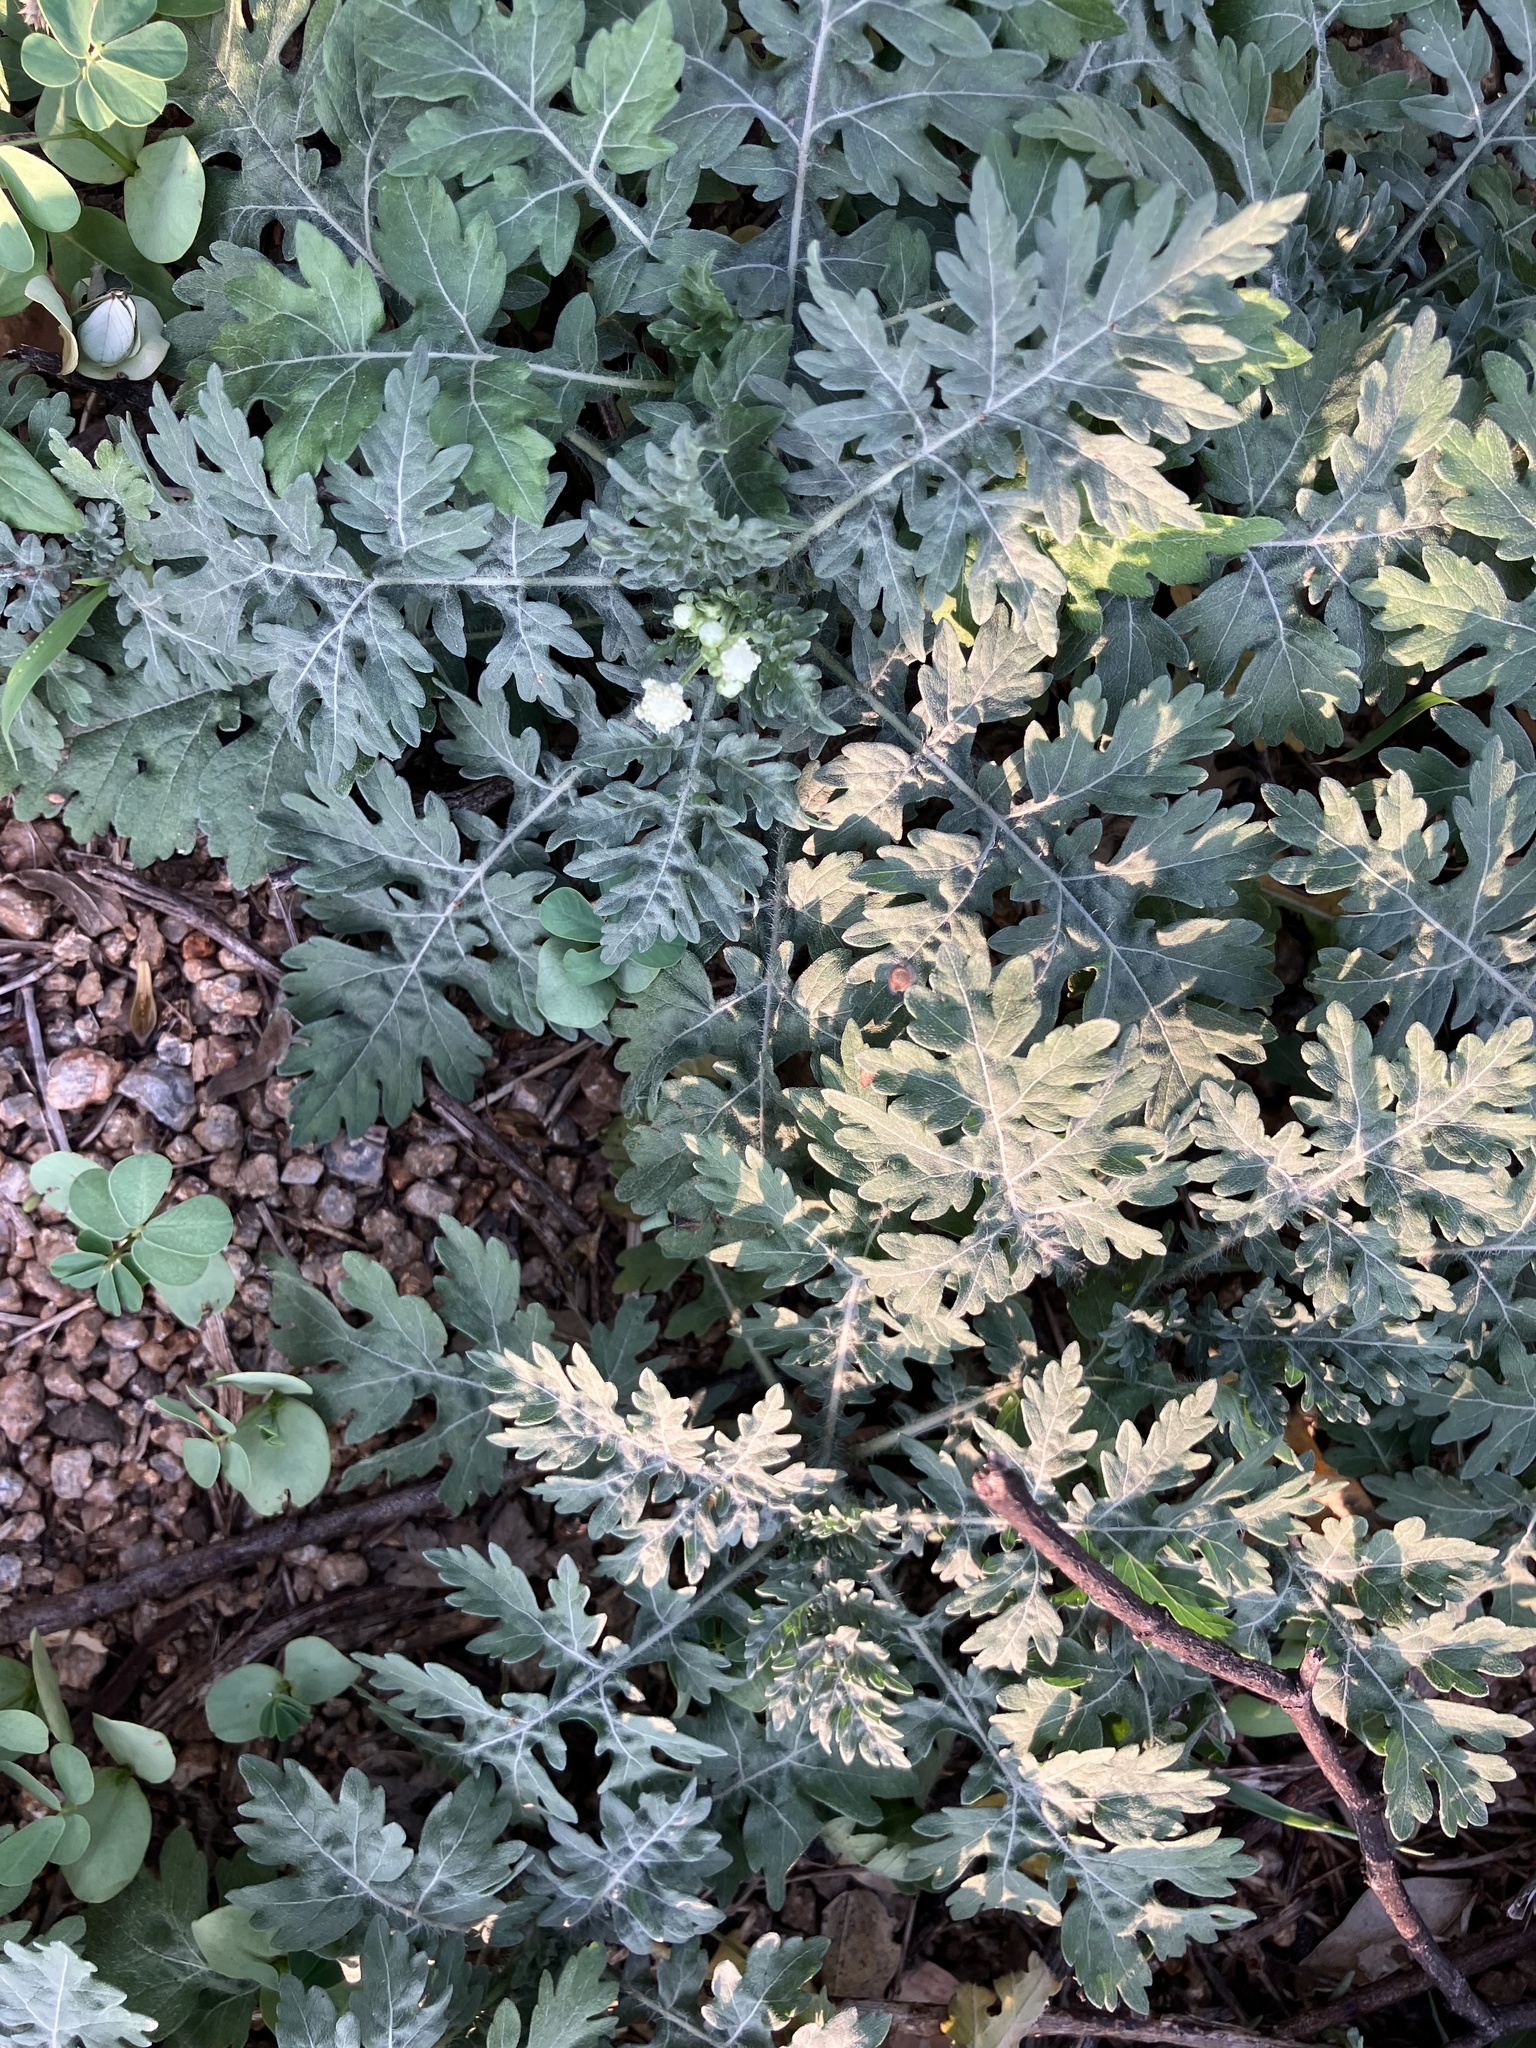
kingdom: Plantae
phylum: Tracheophyta
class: Magnoliopsida
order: Asterales
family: Asteraceae
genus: Parthenium
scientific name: Parthenium hysterophorus
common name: Santa maria feverfew
